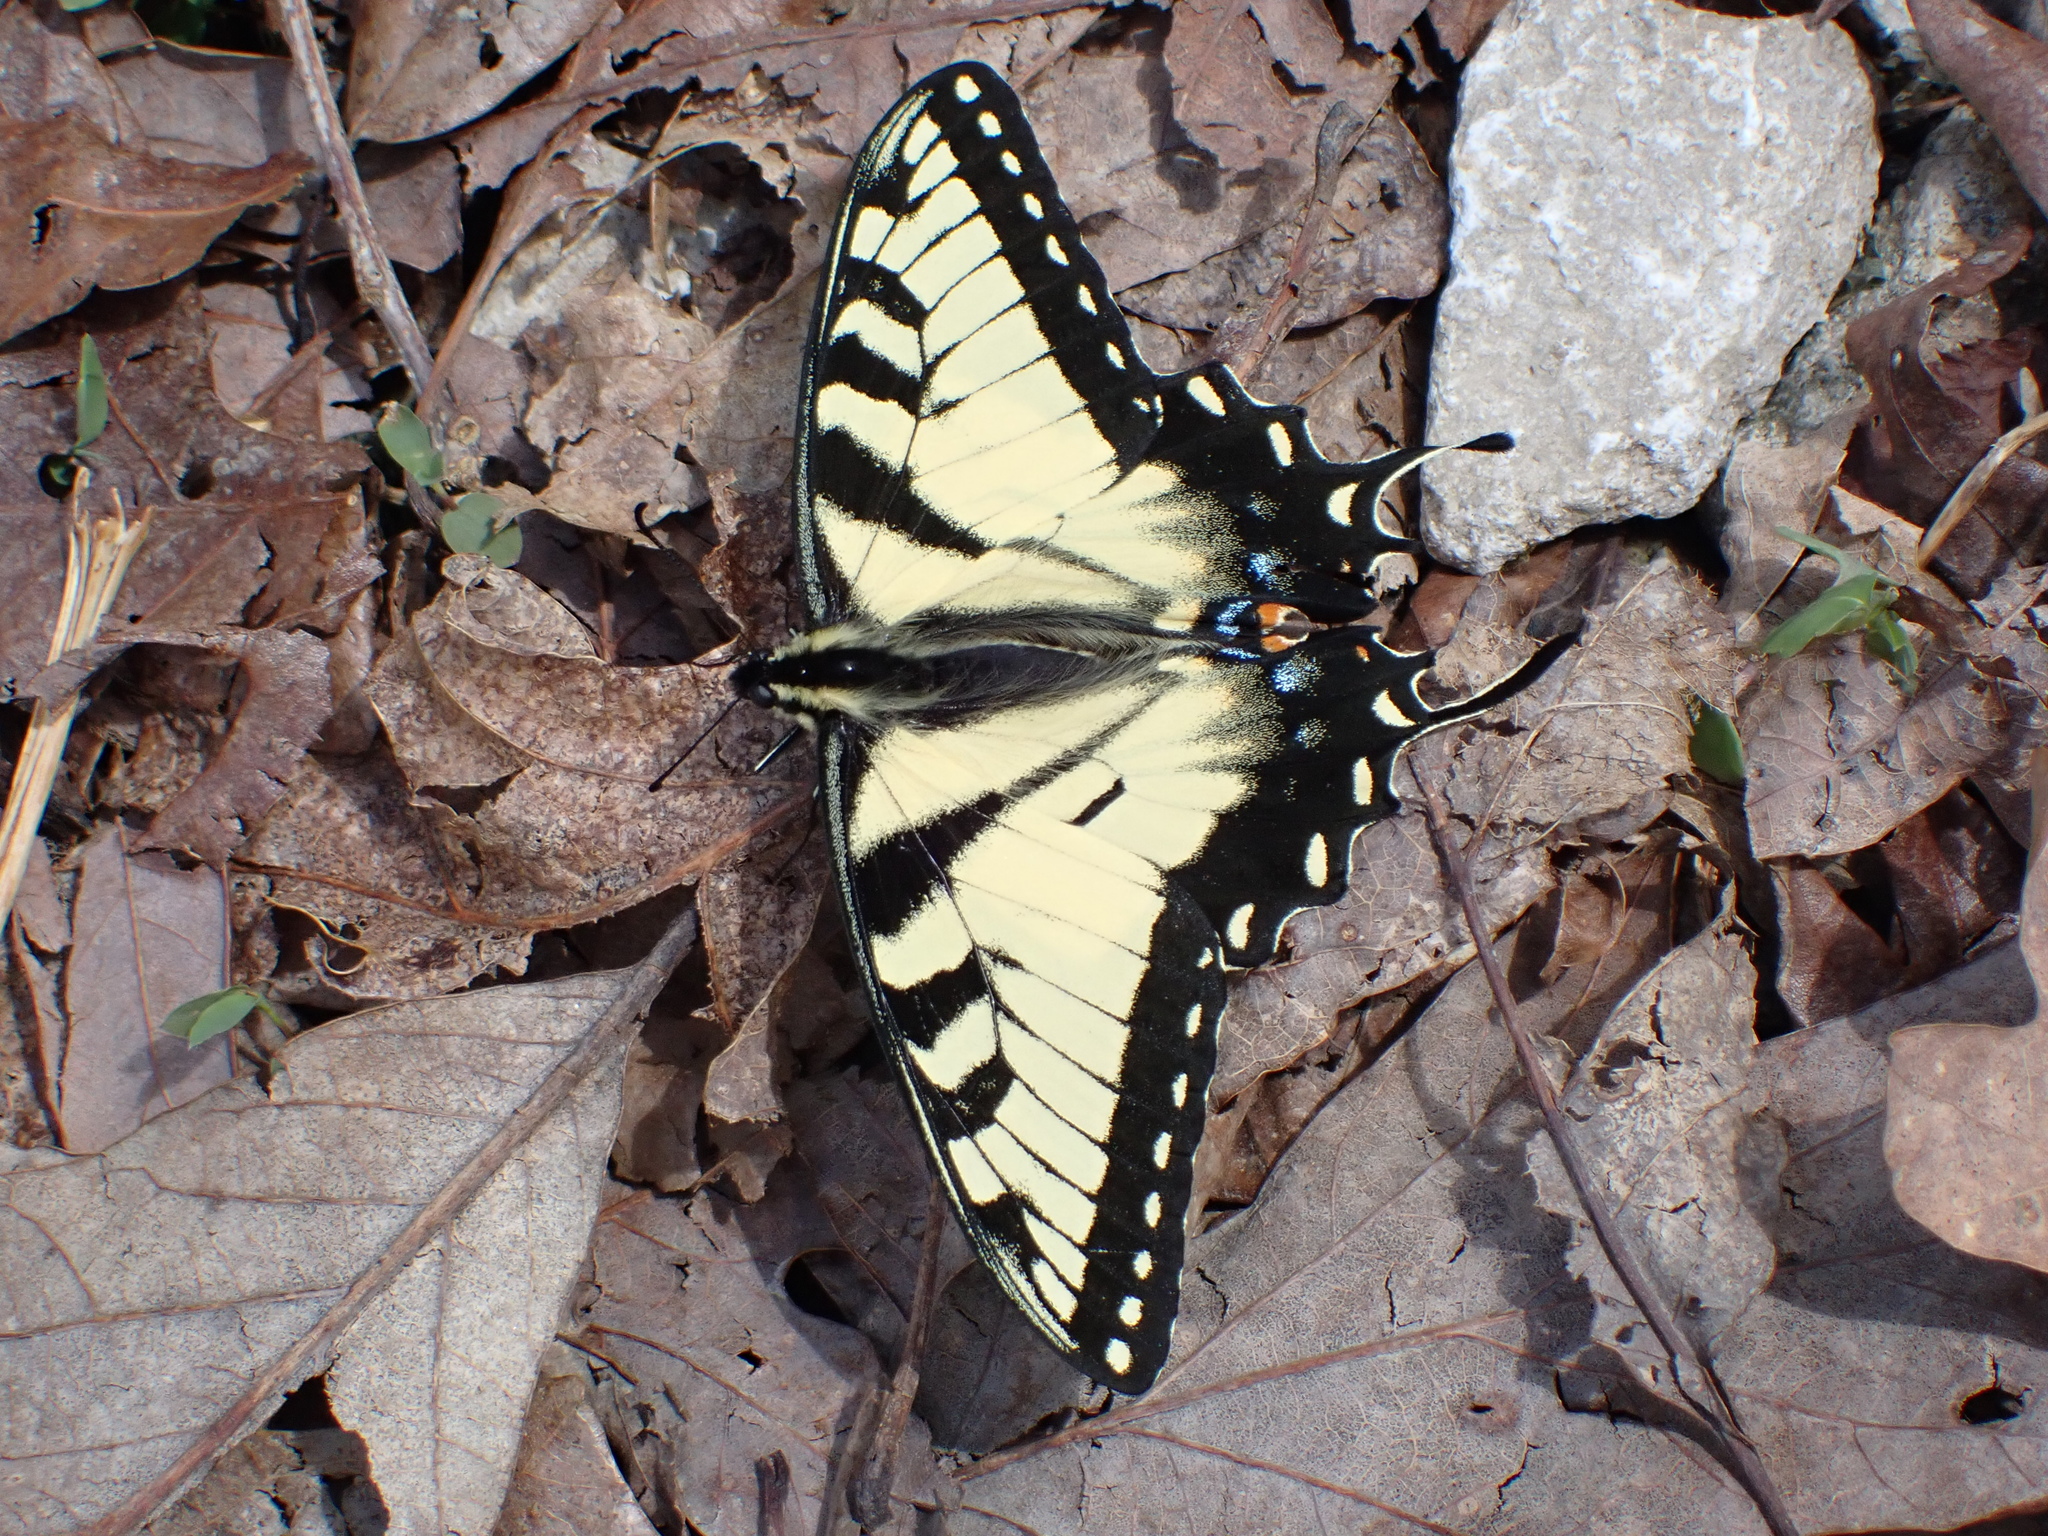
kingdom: Animalia
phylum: Arthropoda
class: Insecta
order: Lepidoptera
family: Papilionidae
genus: Papilio
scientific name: Papilio glaucus
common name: Tiger swallowtail
